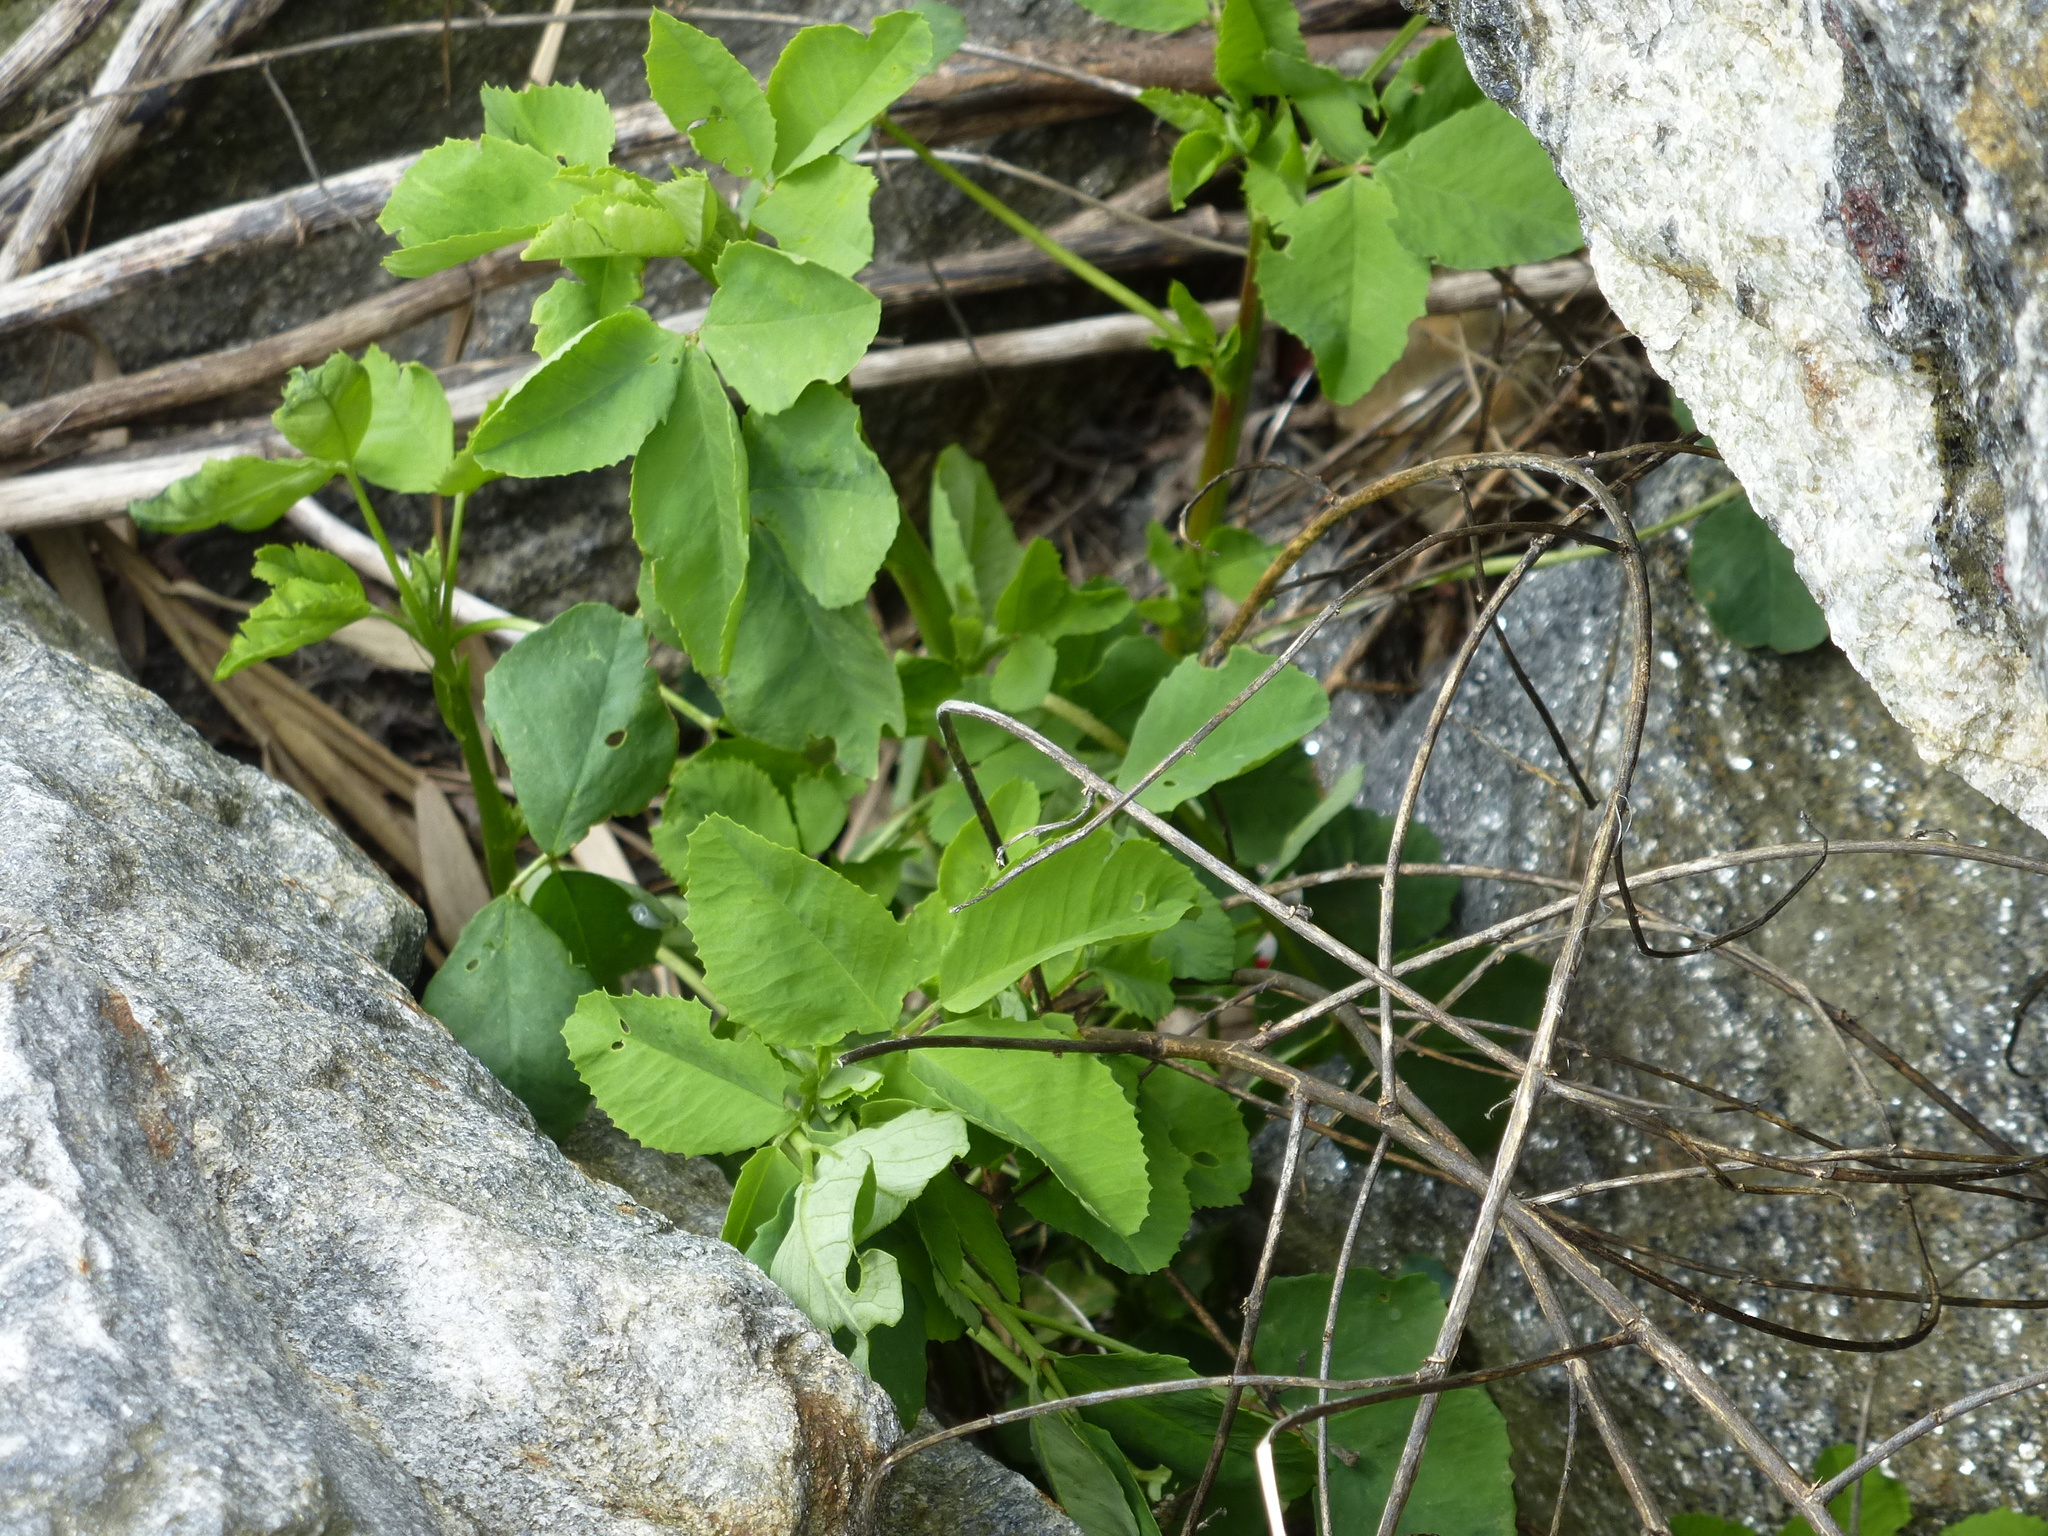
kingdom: Plantae
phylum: Tracheophyta
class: Magnoliopsida
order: Asterales
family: Asteraceae
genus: Baccharis
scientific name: Baccharis halimifolia
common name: Eastern baccharis
